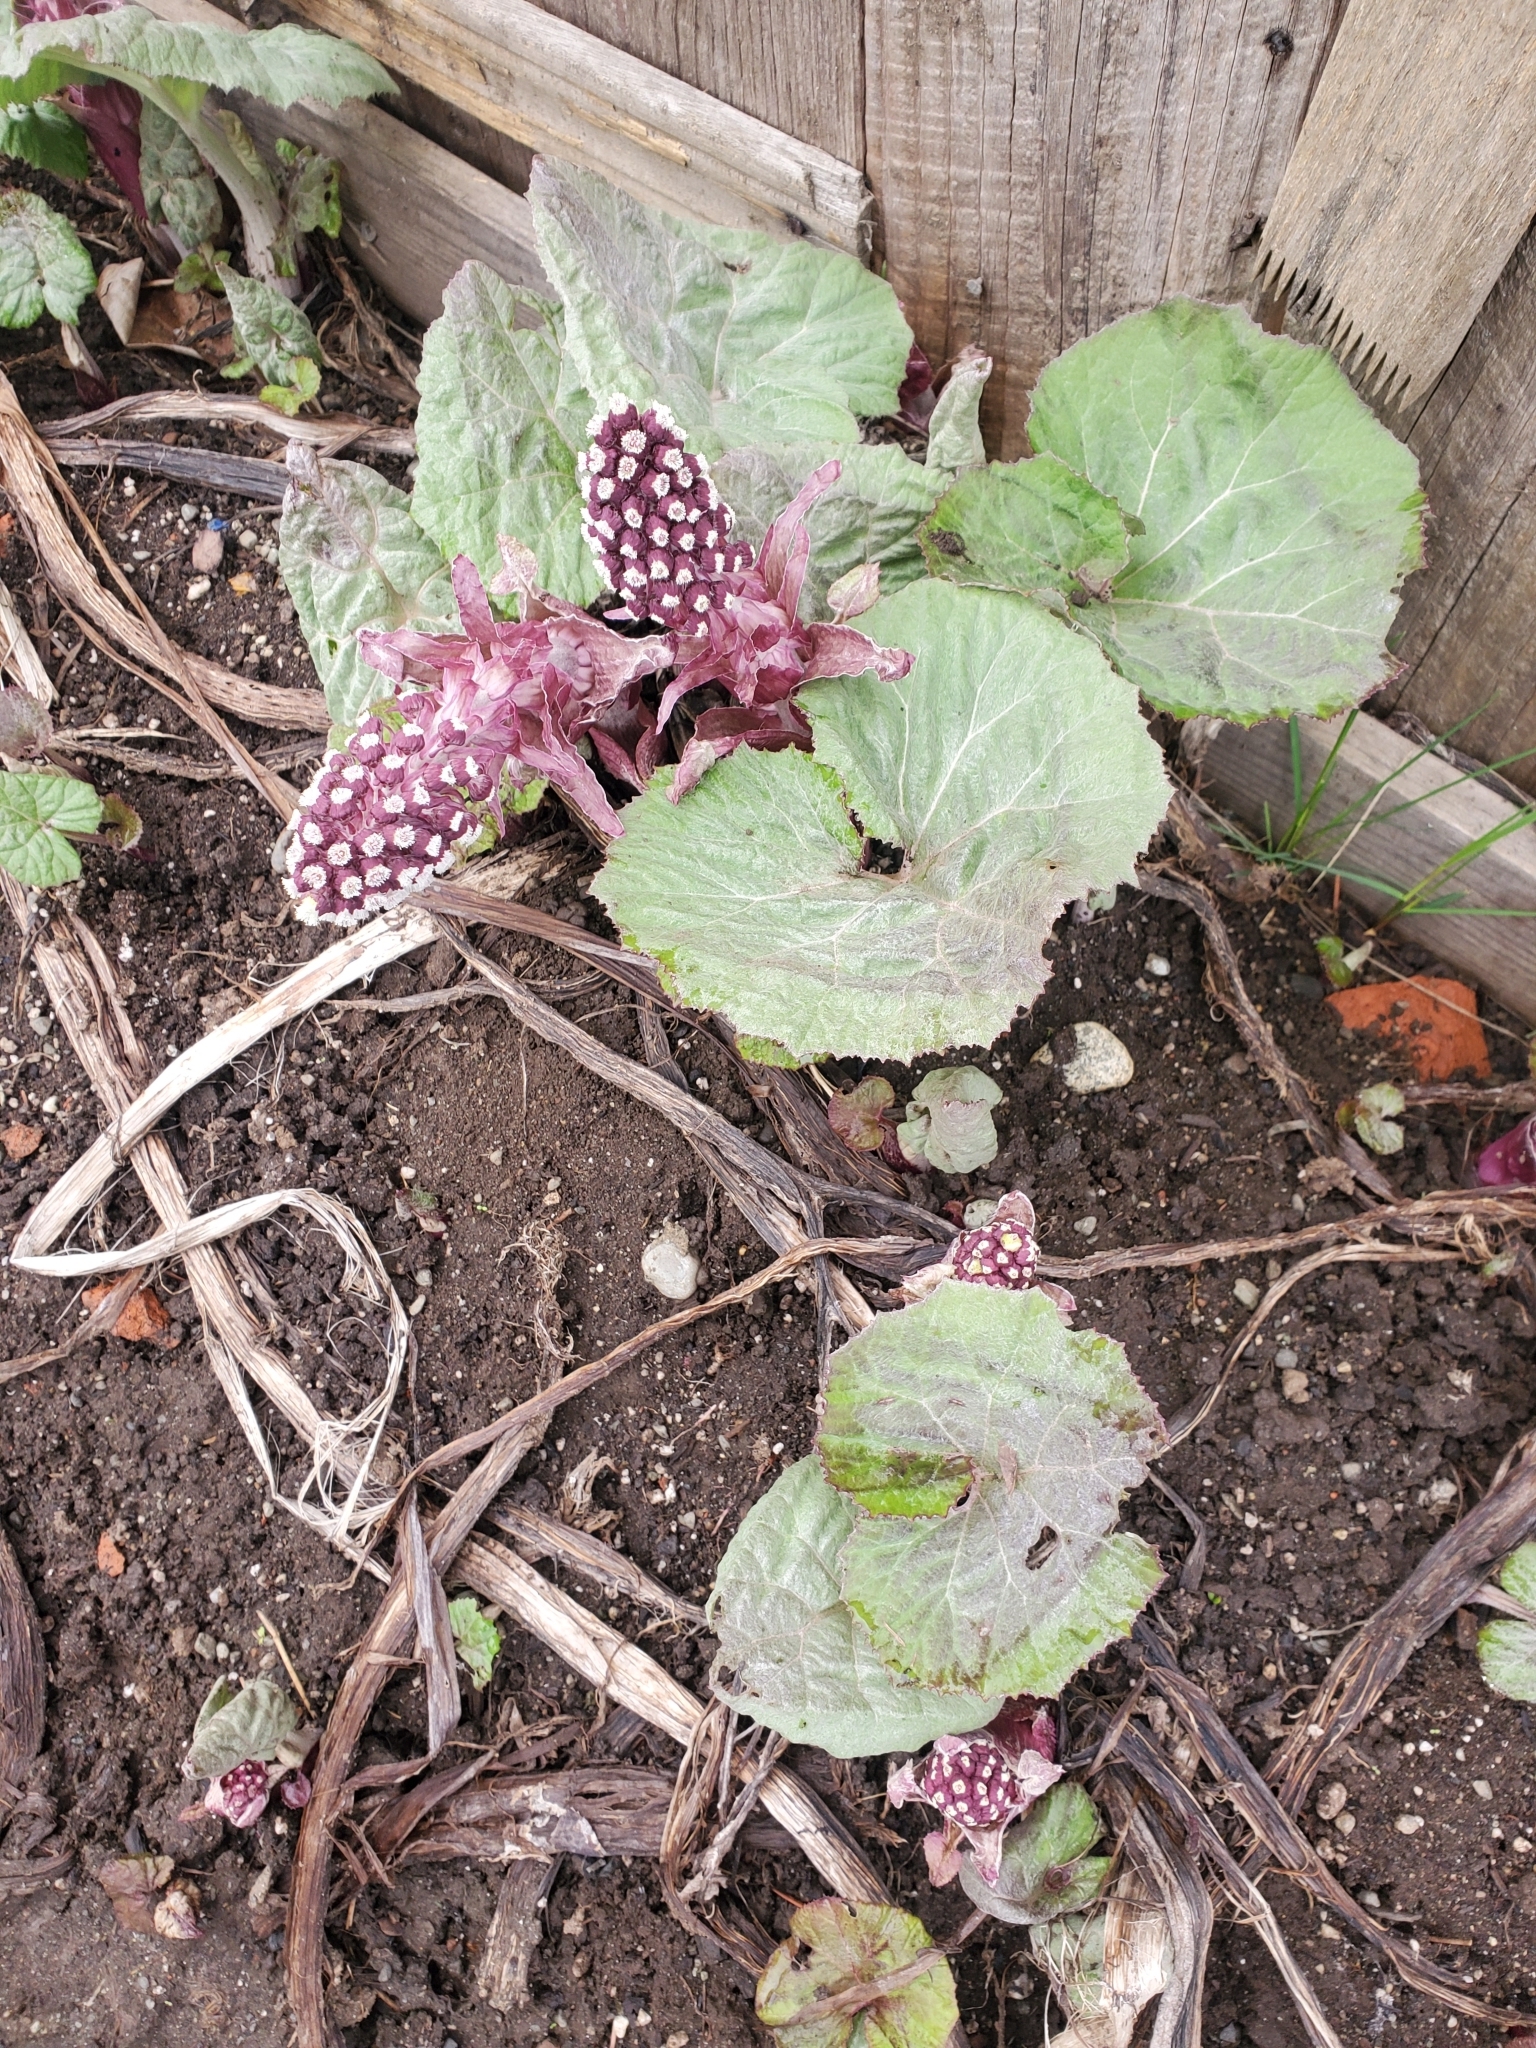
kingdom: Plantae
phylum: Tracheophyta
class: Magnoliopsida
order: Asterales
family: Asteraceae
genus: Petasites
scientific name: Petasites hybridus
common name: Butterbur
